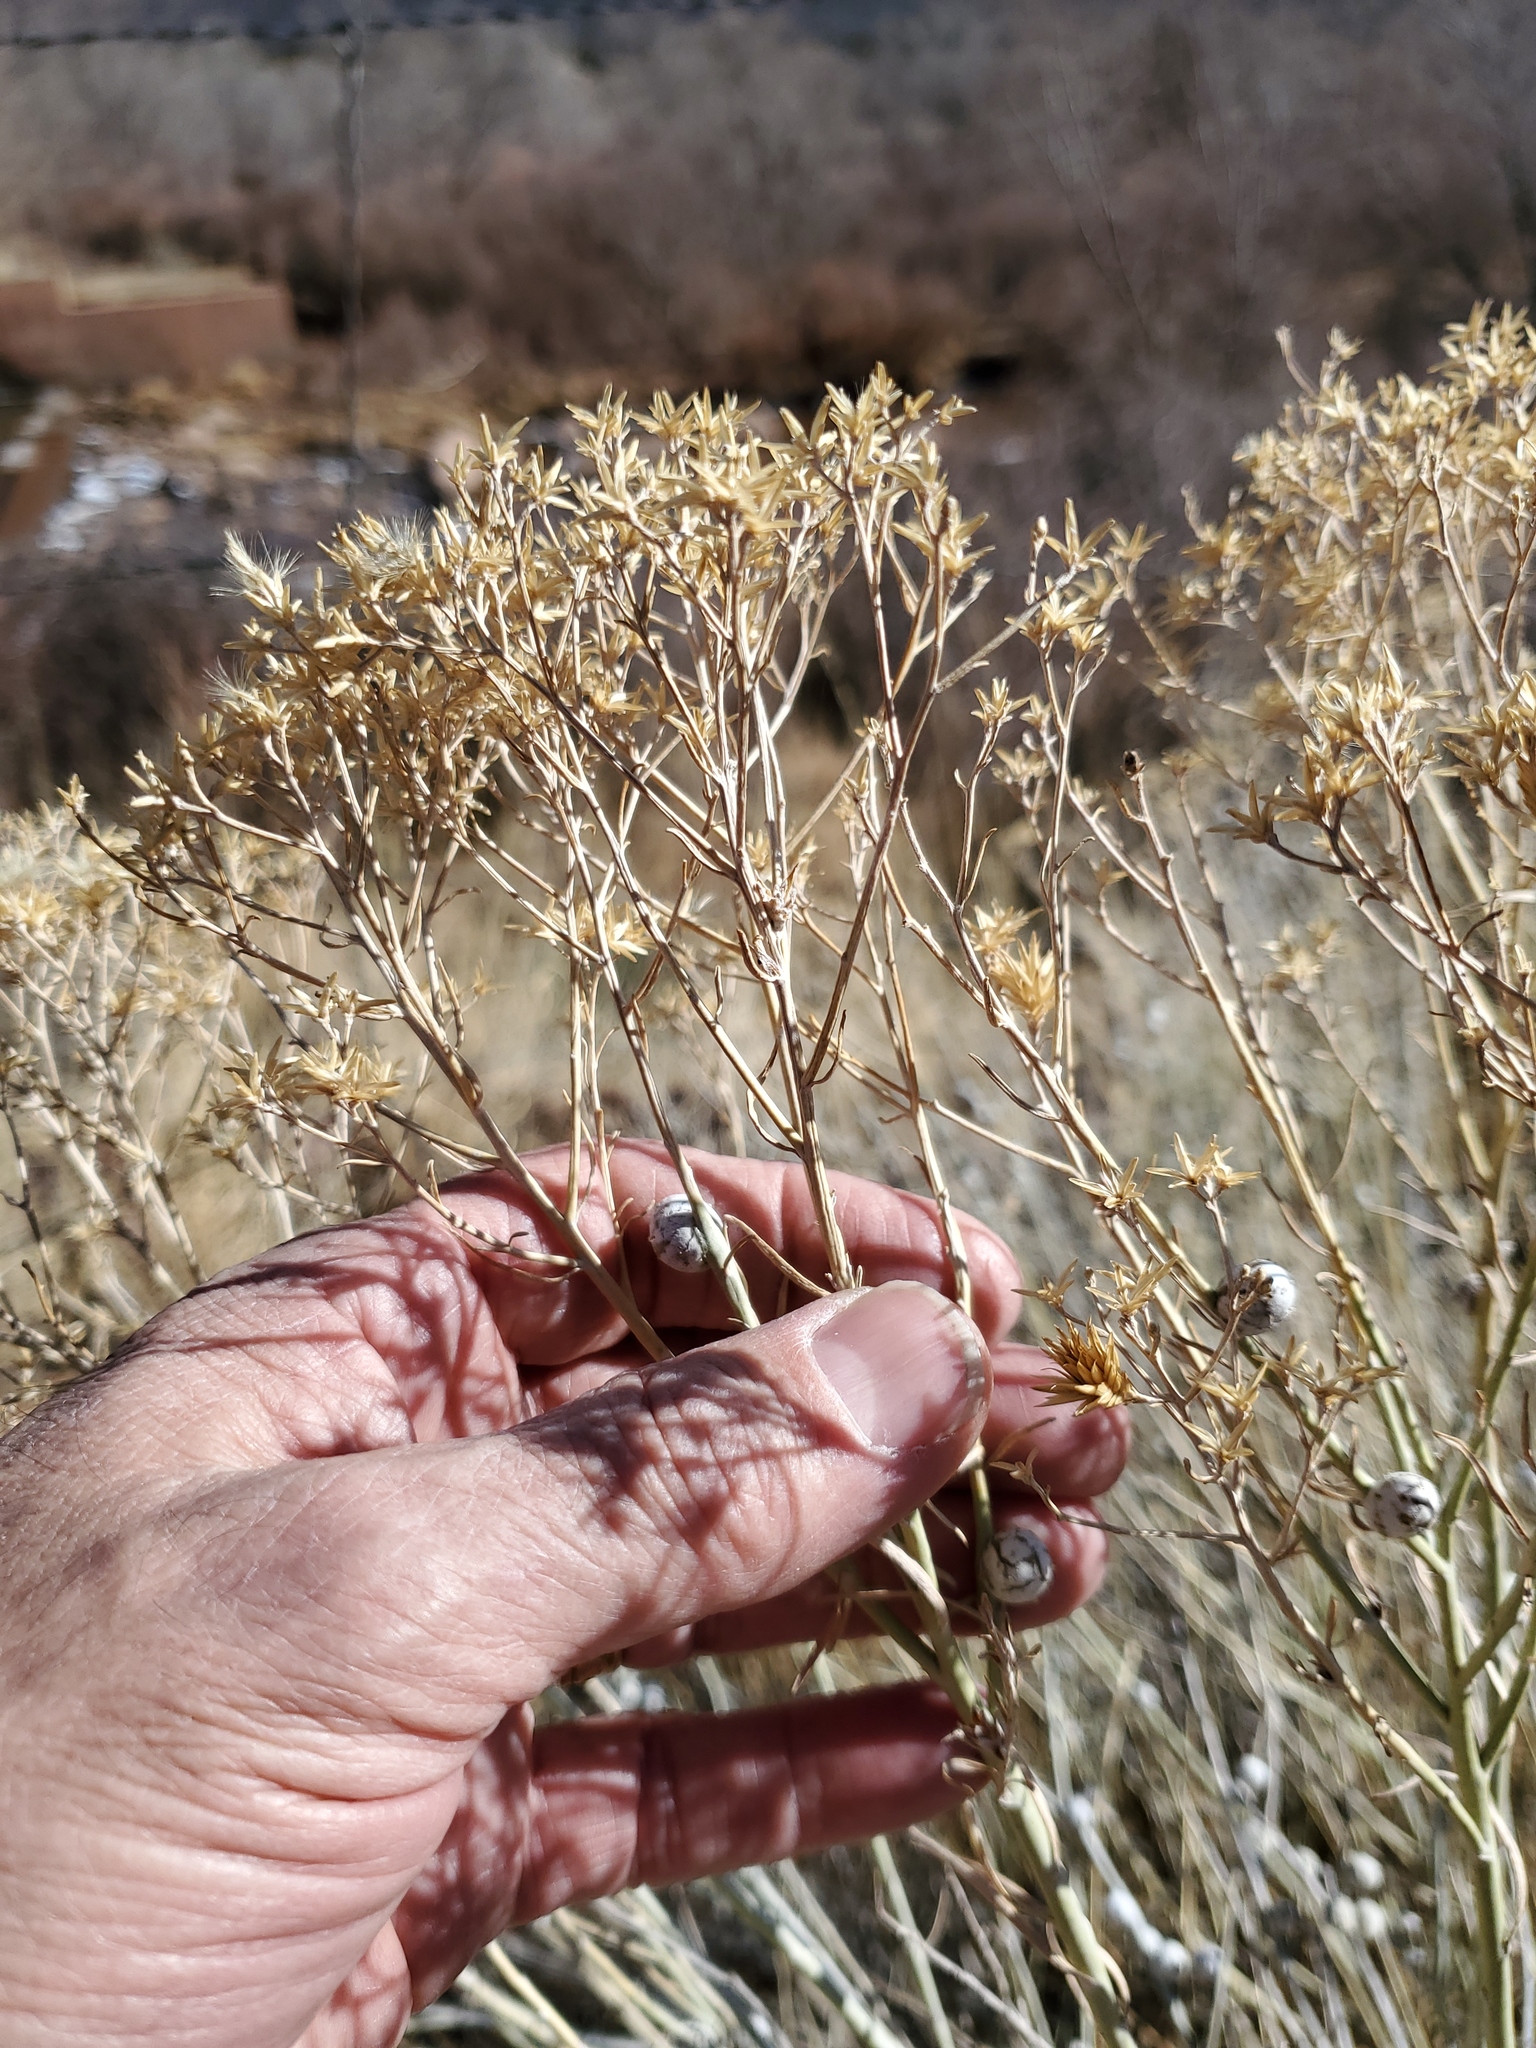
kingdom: Animalia
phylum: Arthropoda
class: Insecta
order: Diptera
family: Tephritidae
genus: Aciurina
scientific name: Aciurina trixa
